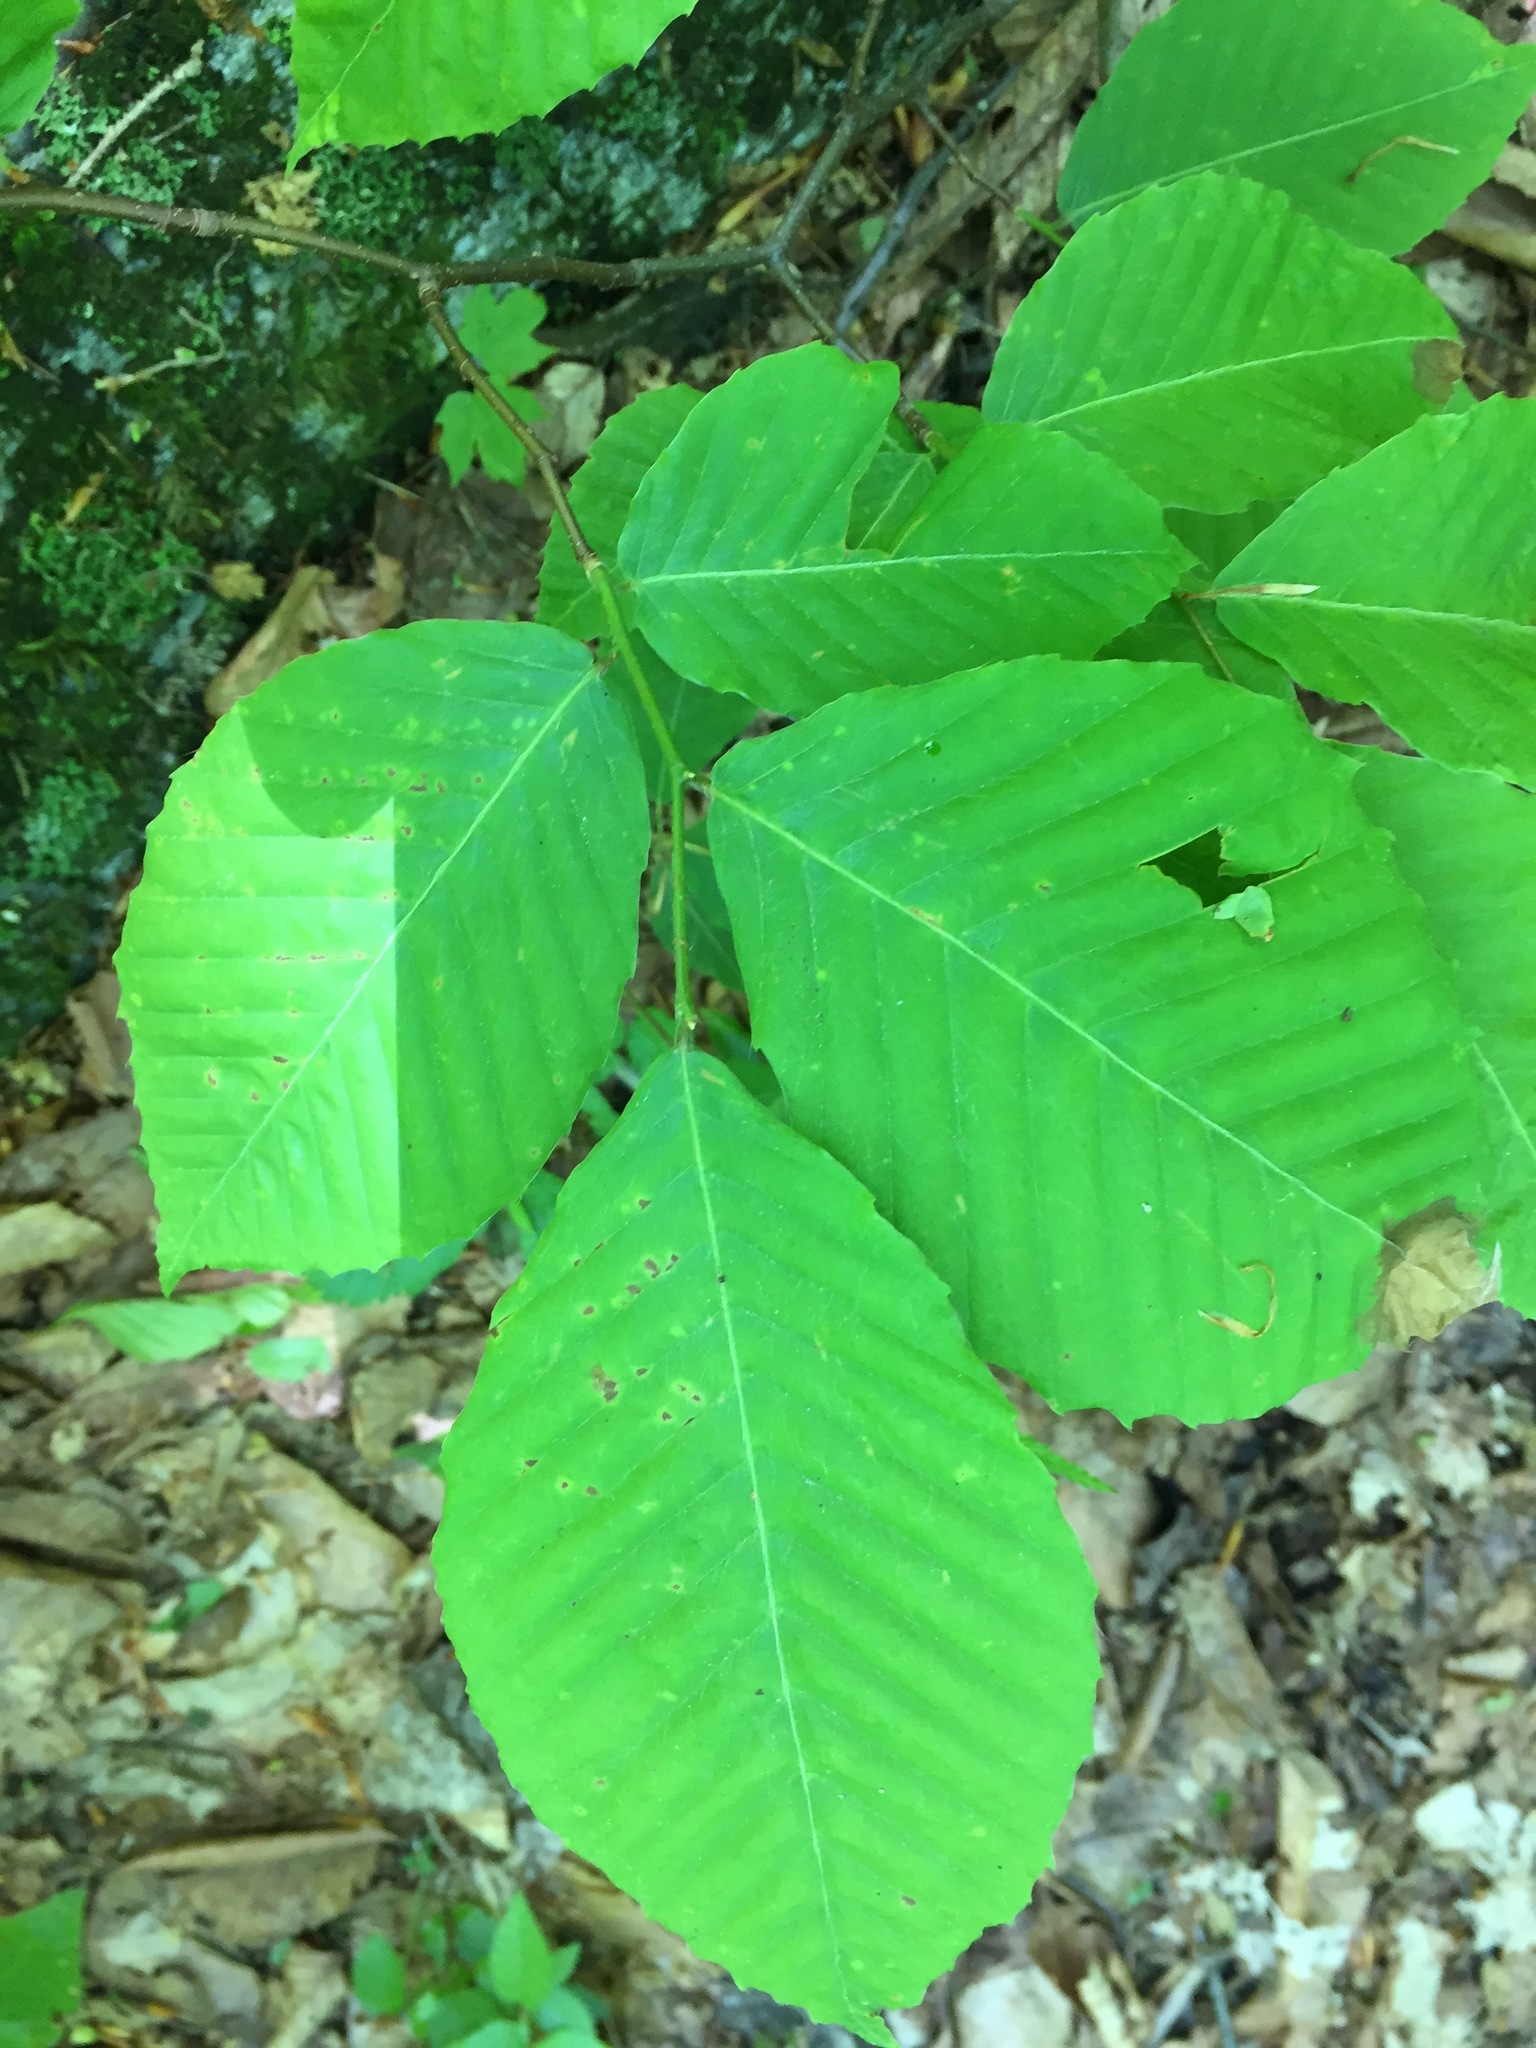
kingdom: Plantae
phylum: Tracheophyta
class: Magnoliopsida
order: Fagales
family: Fagaceae
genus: Fagus
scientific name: Fagus grandifolia
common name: American beech
